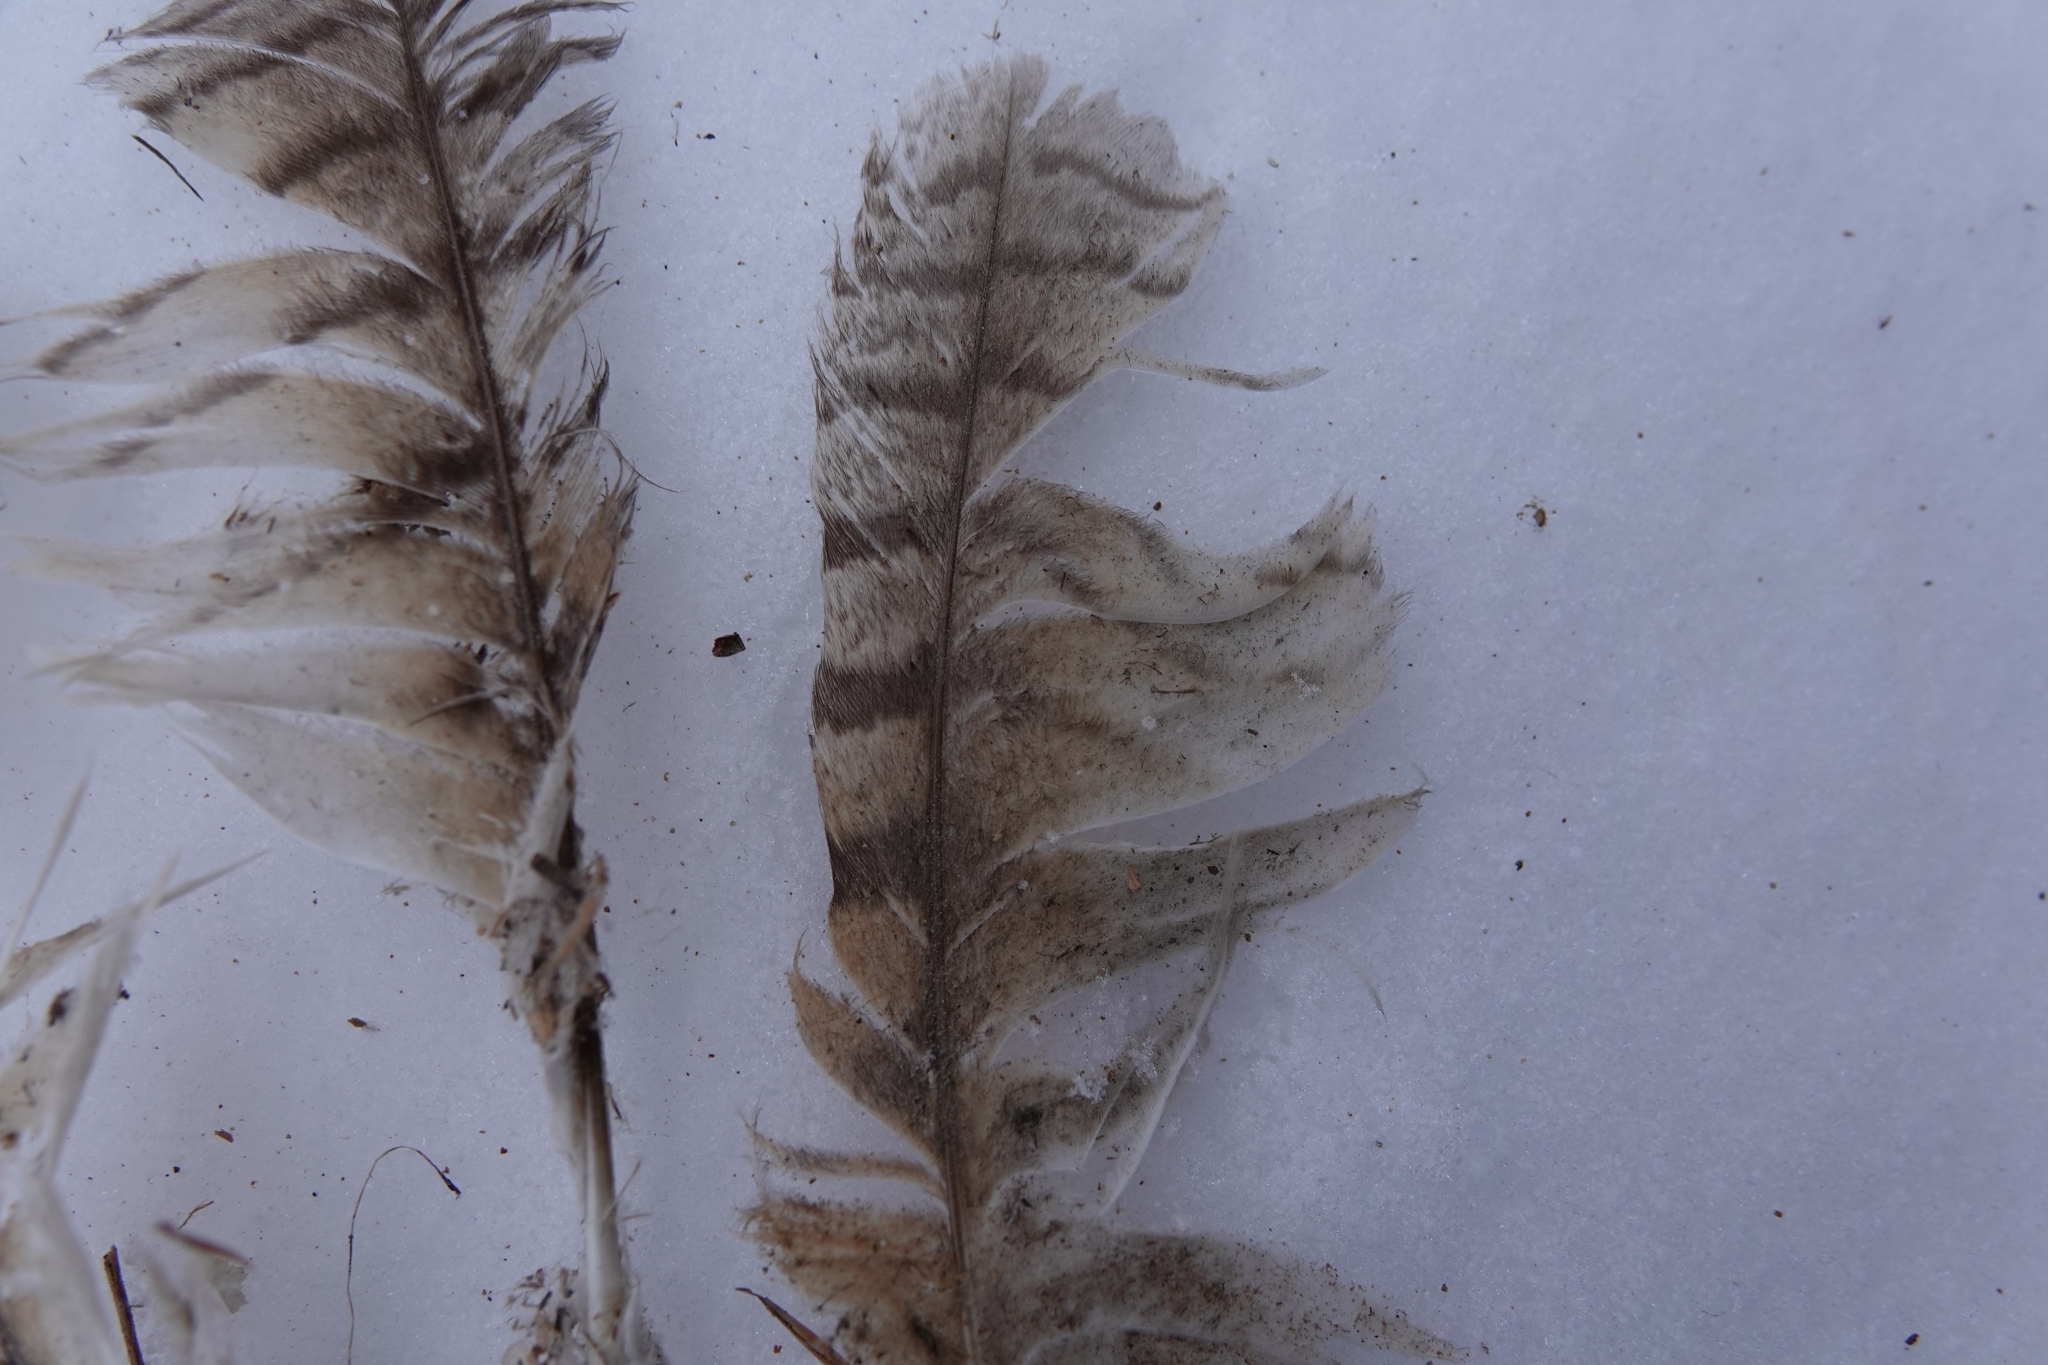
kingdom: Animalia
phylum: Chordata
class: Aves
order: Strigiformes
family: Strigidae
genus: Asio
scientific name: Asio otus
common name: Long-eared owl
